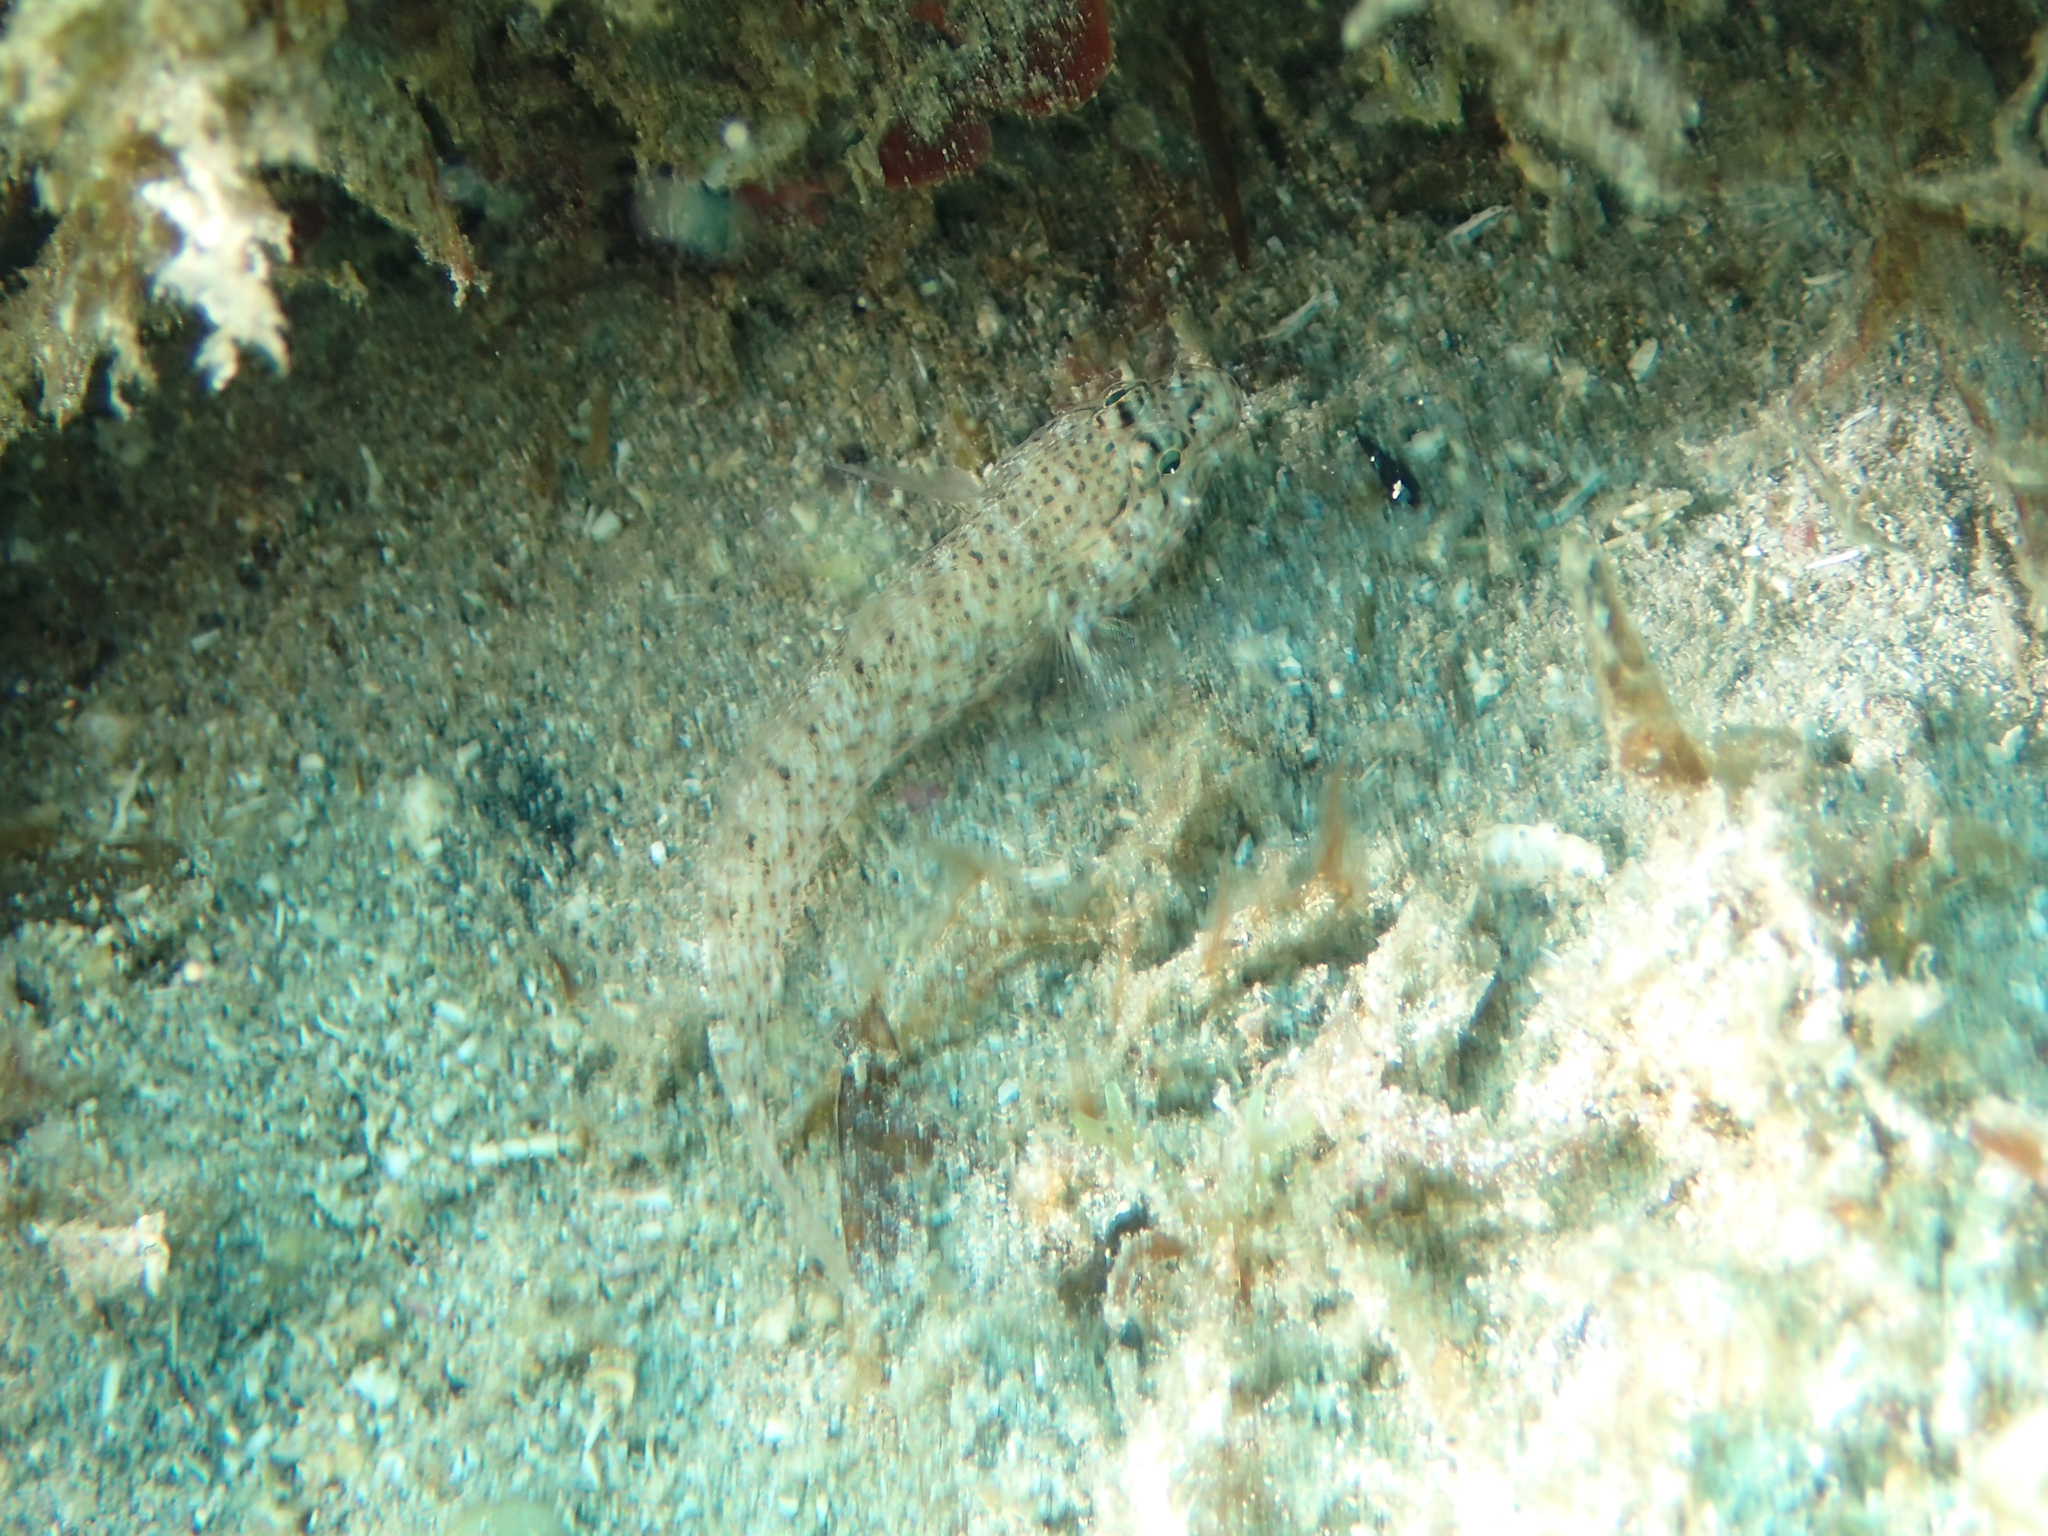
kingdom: Animalia
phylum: Chordata
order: Perciformes
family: Gobiidae
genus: Gobius
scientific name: Gobius incognitus
